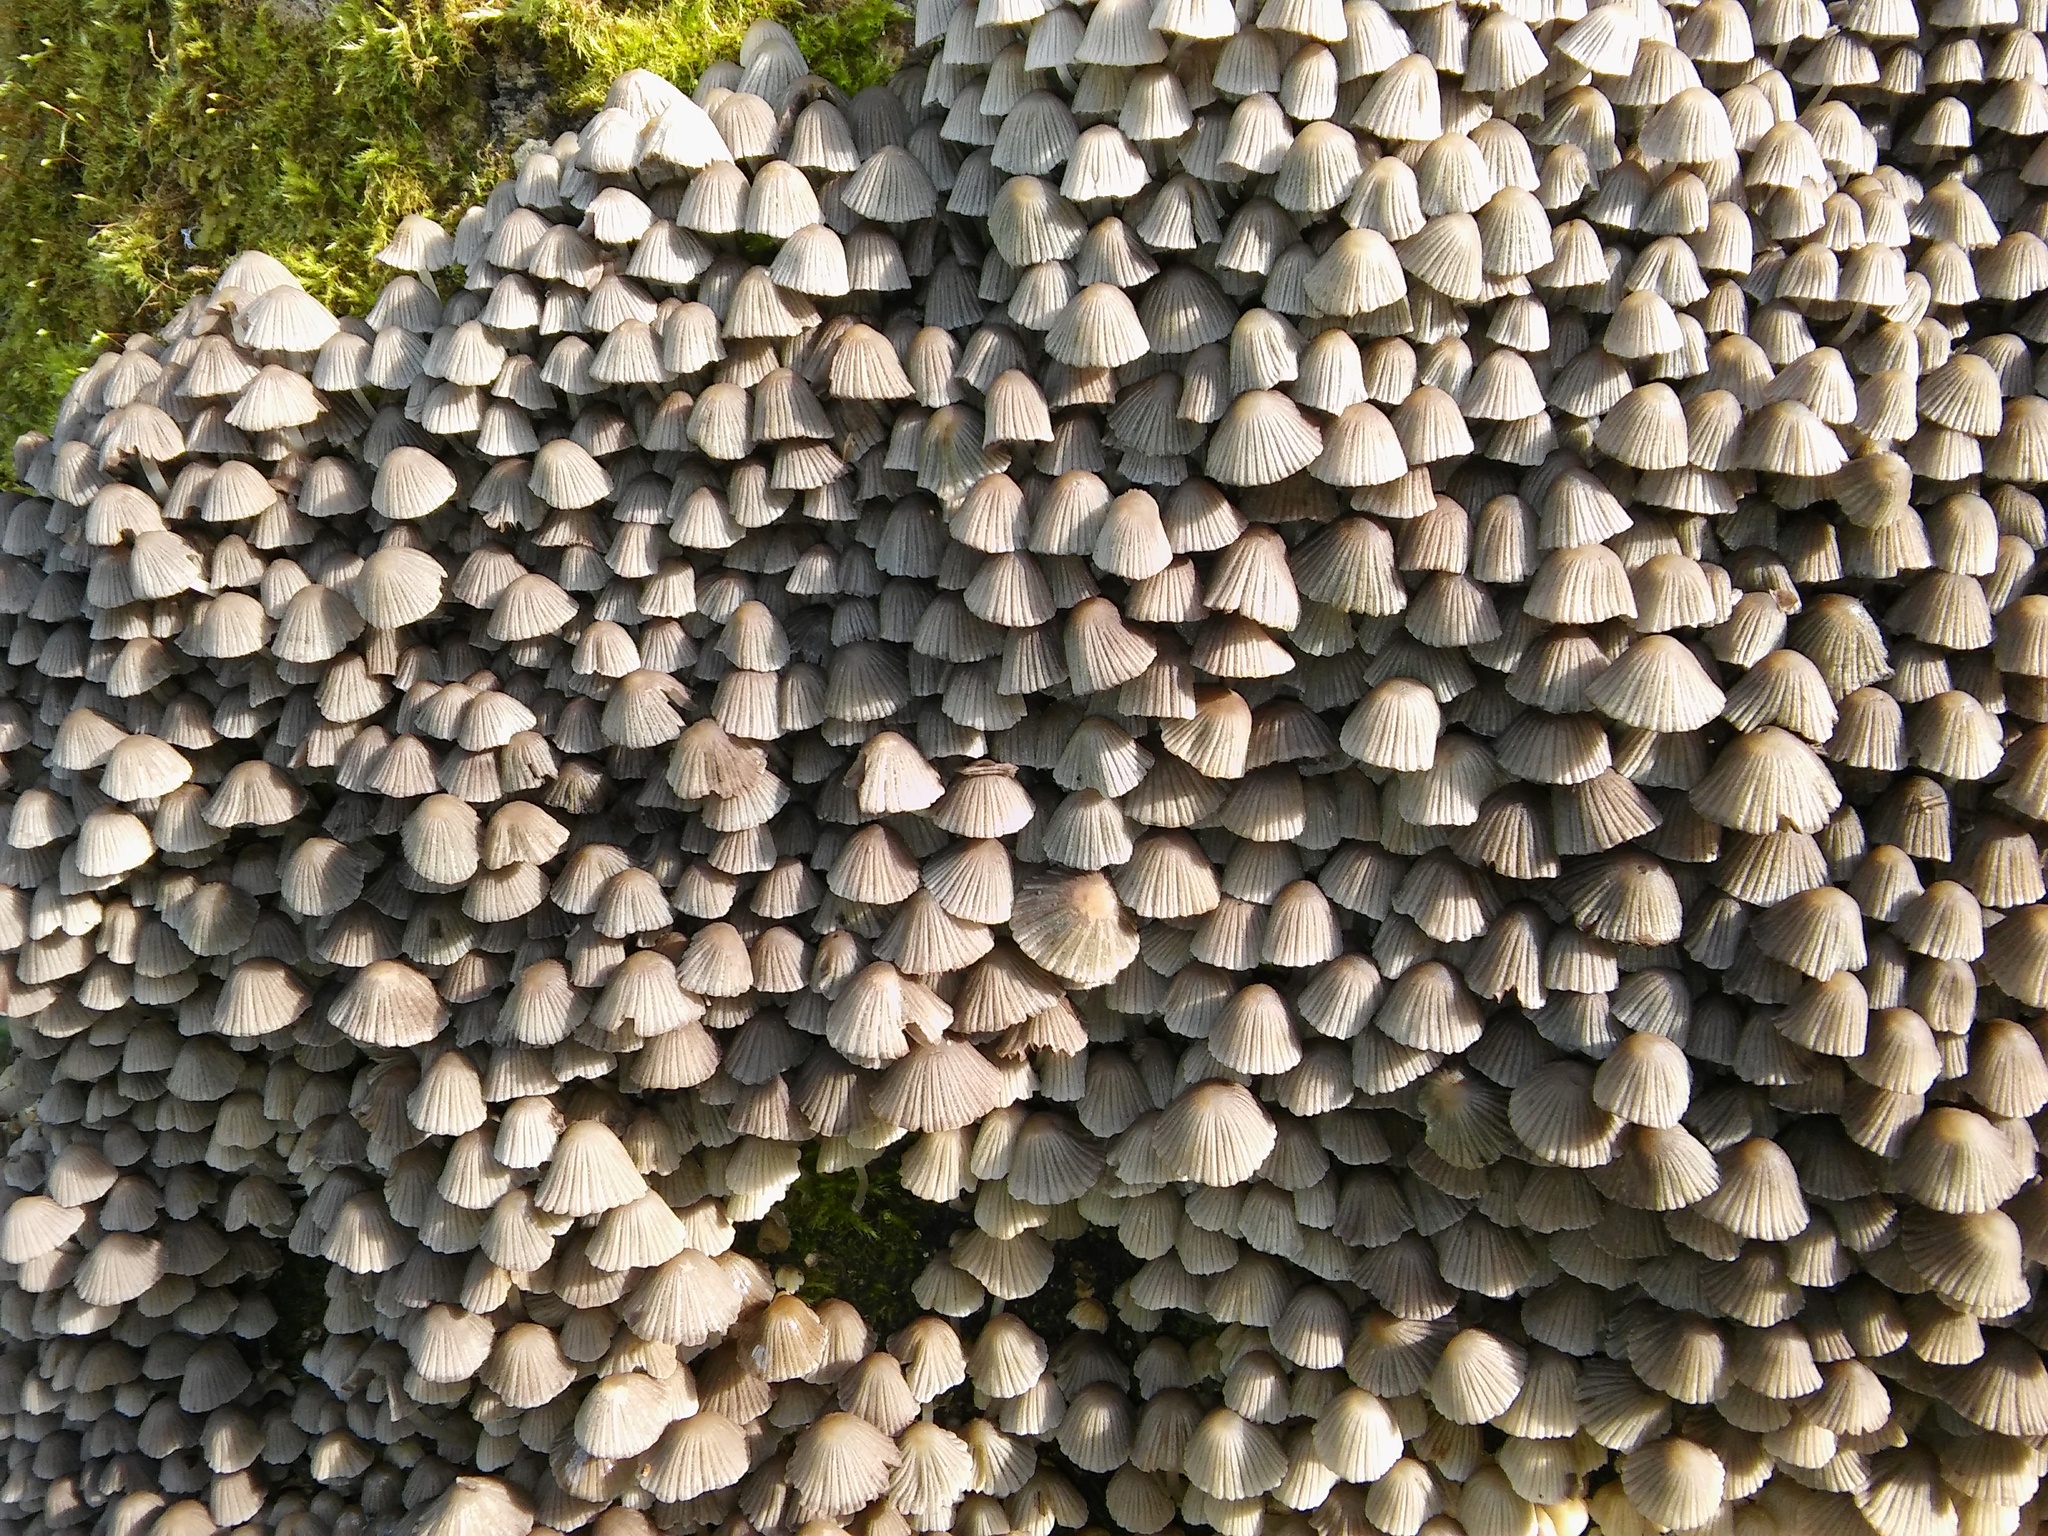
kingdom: Fungi
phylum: Basidiomycota
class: Agaricomycetes
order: Agaricales
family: Psathyrellaceae
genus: Coprinellus
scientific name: Coprinellus disseminatus
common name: Fairies' bonnets
